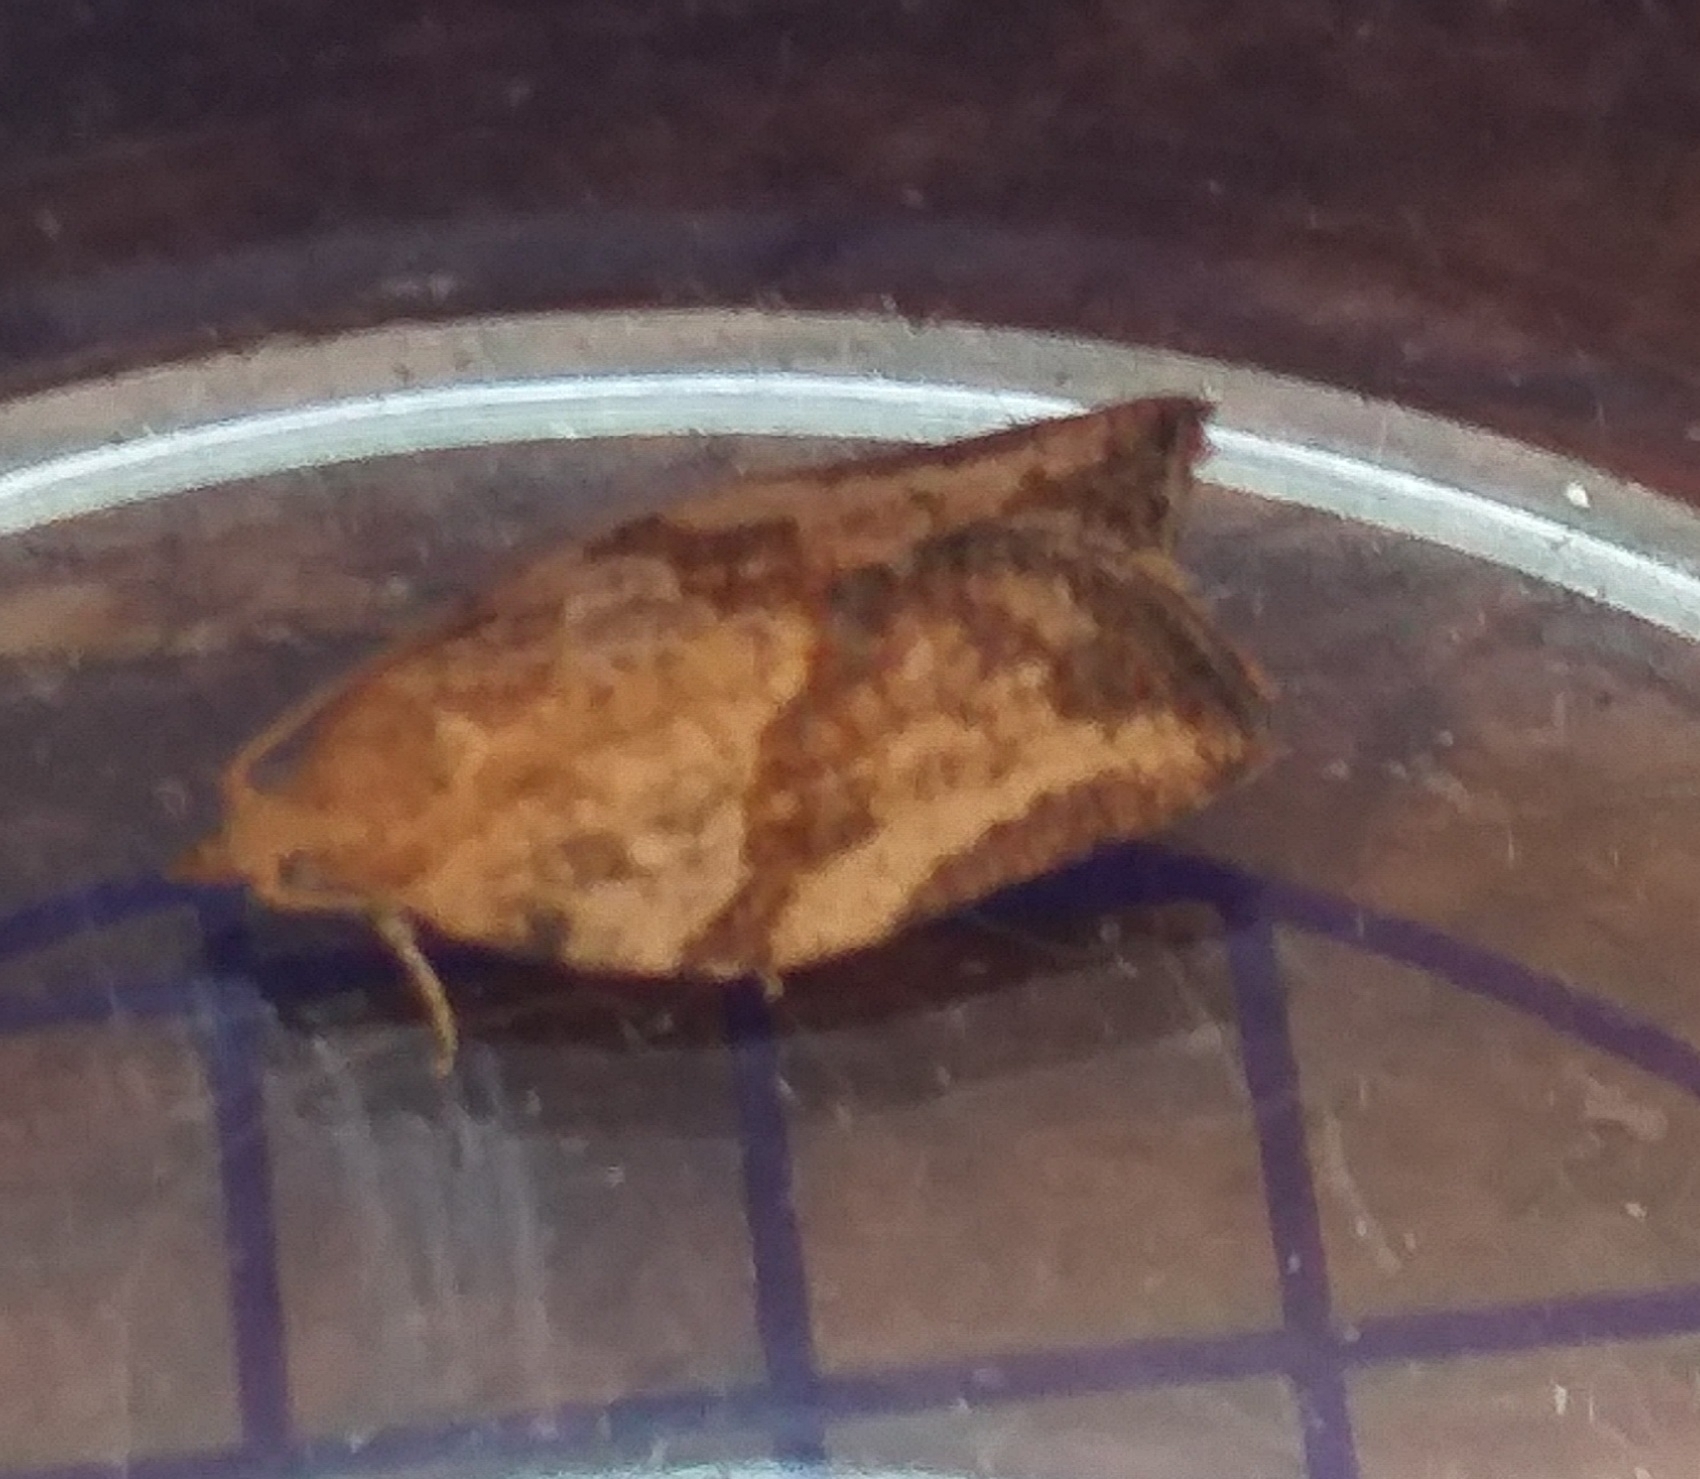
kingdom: Animalia
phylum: Arthropoda
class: Insecta
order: Lepidoptera
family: Tortricidae
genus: Epiphyas
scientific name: Epiphyas postvittana
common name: Light brown apple moth
